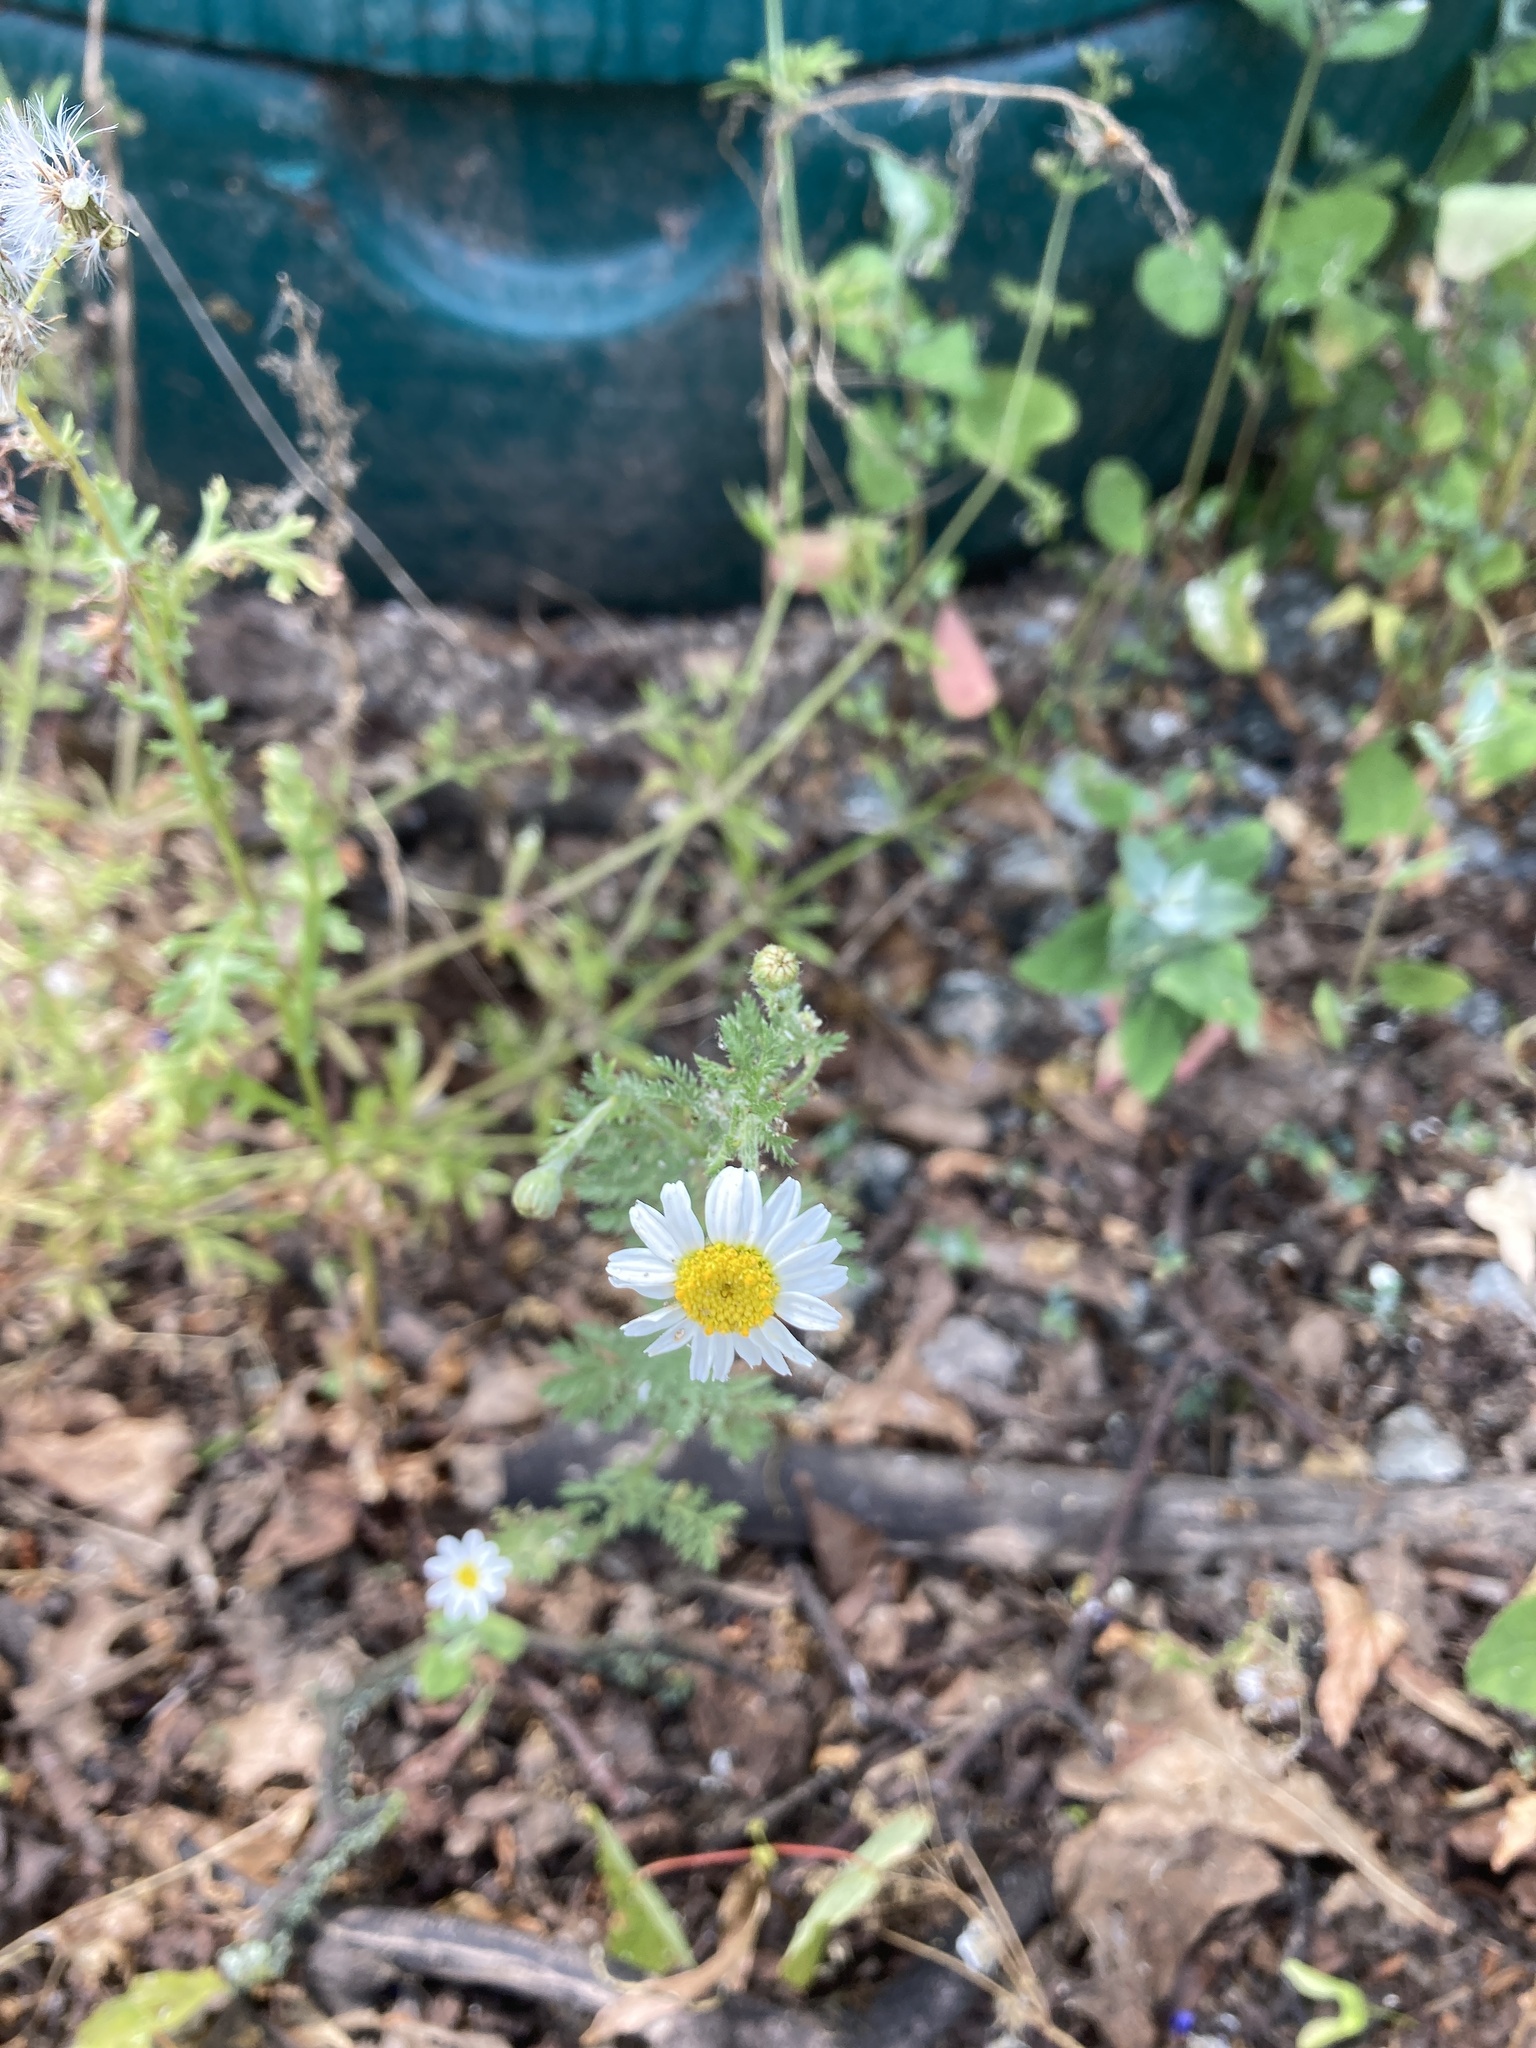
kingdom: Plantae
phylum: Tracheophyta
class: Magnoliopsida
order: Asterales
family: Asteraceae
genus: Tanacetum
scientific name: Tanacetum parthenium
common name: Feverfew
